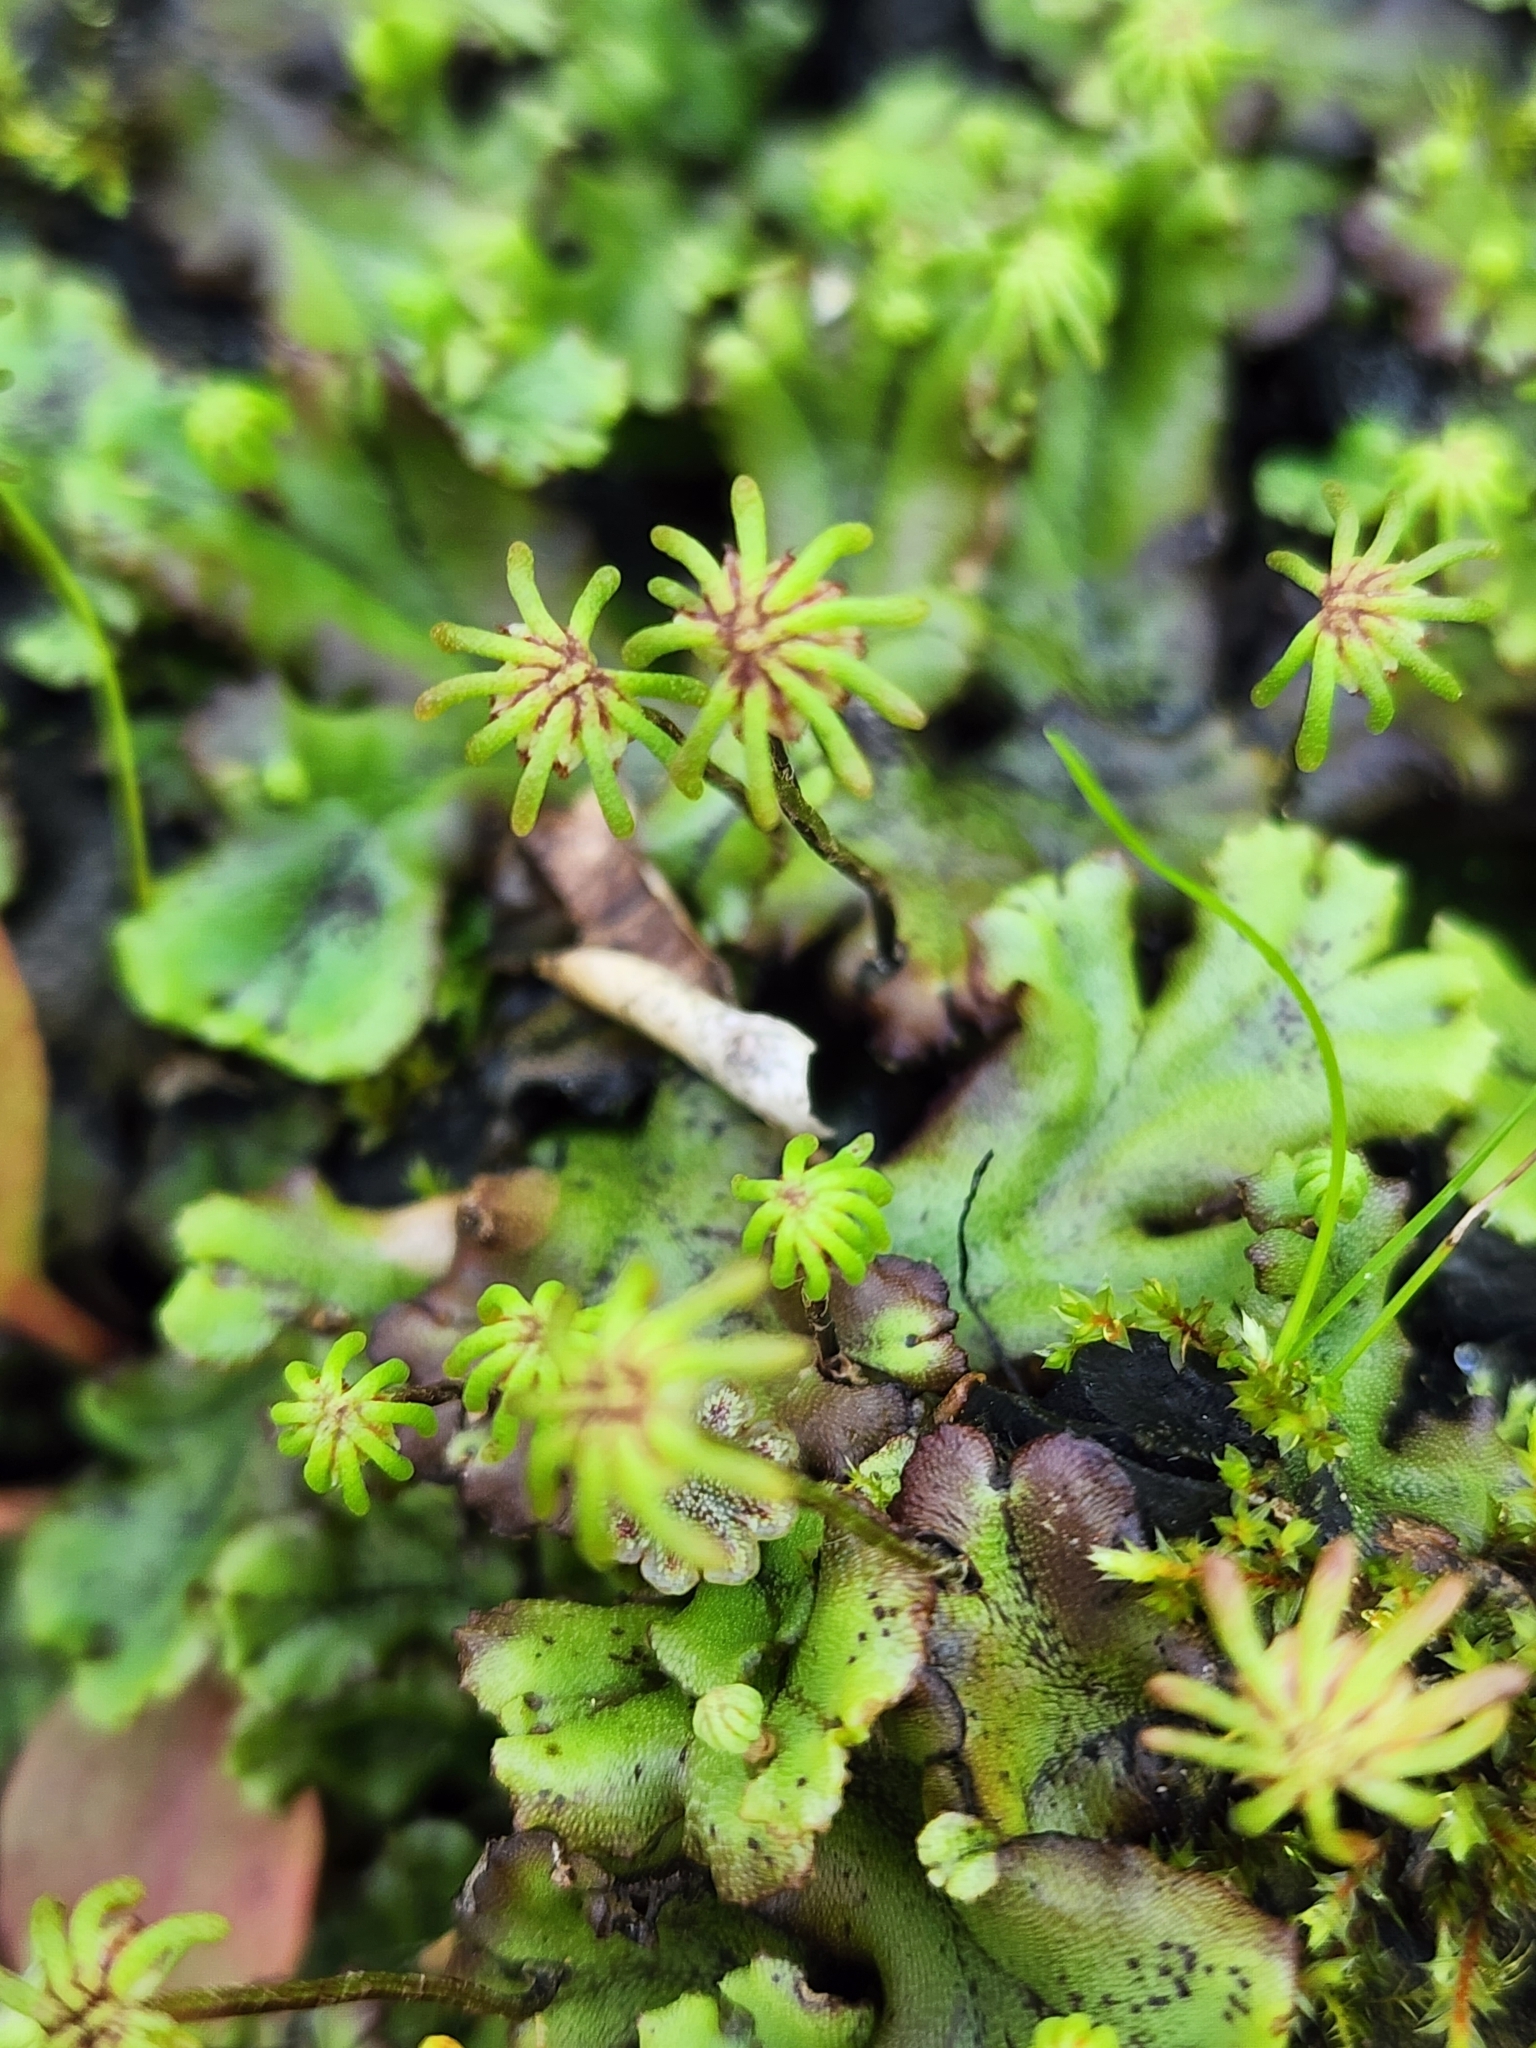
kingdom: Plantae
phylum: Marchantiophyta
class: Marchantiopsida
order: Marchantiales
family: Marchantiaceae
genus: Marchantia
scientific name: Marchantia polymorpha
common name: Common liverwort
